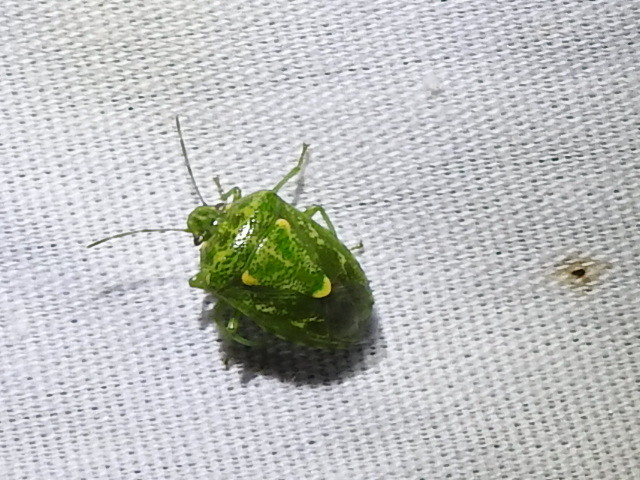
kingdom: Animalia
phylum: Arthropoda
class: Insecta
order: Hemiptera
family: Pentatomidae
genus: Banasa
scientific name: Banasa euchlora
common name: Cedar berry bug
